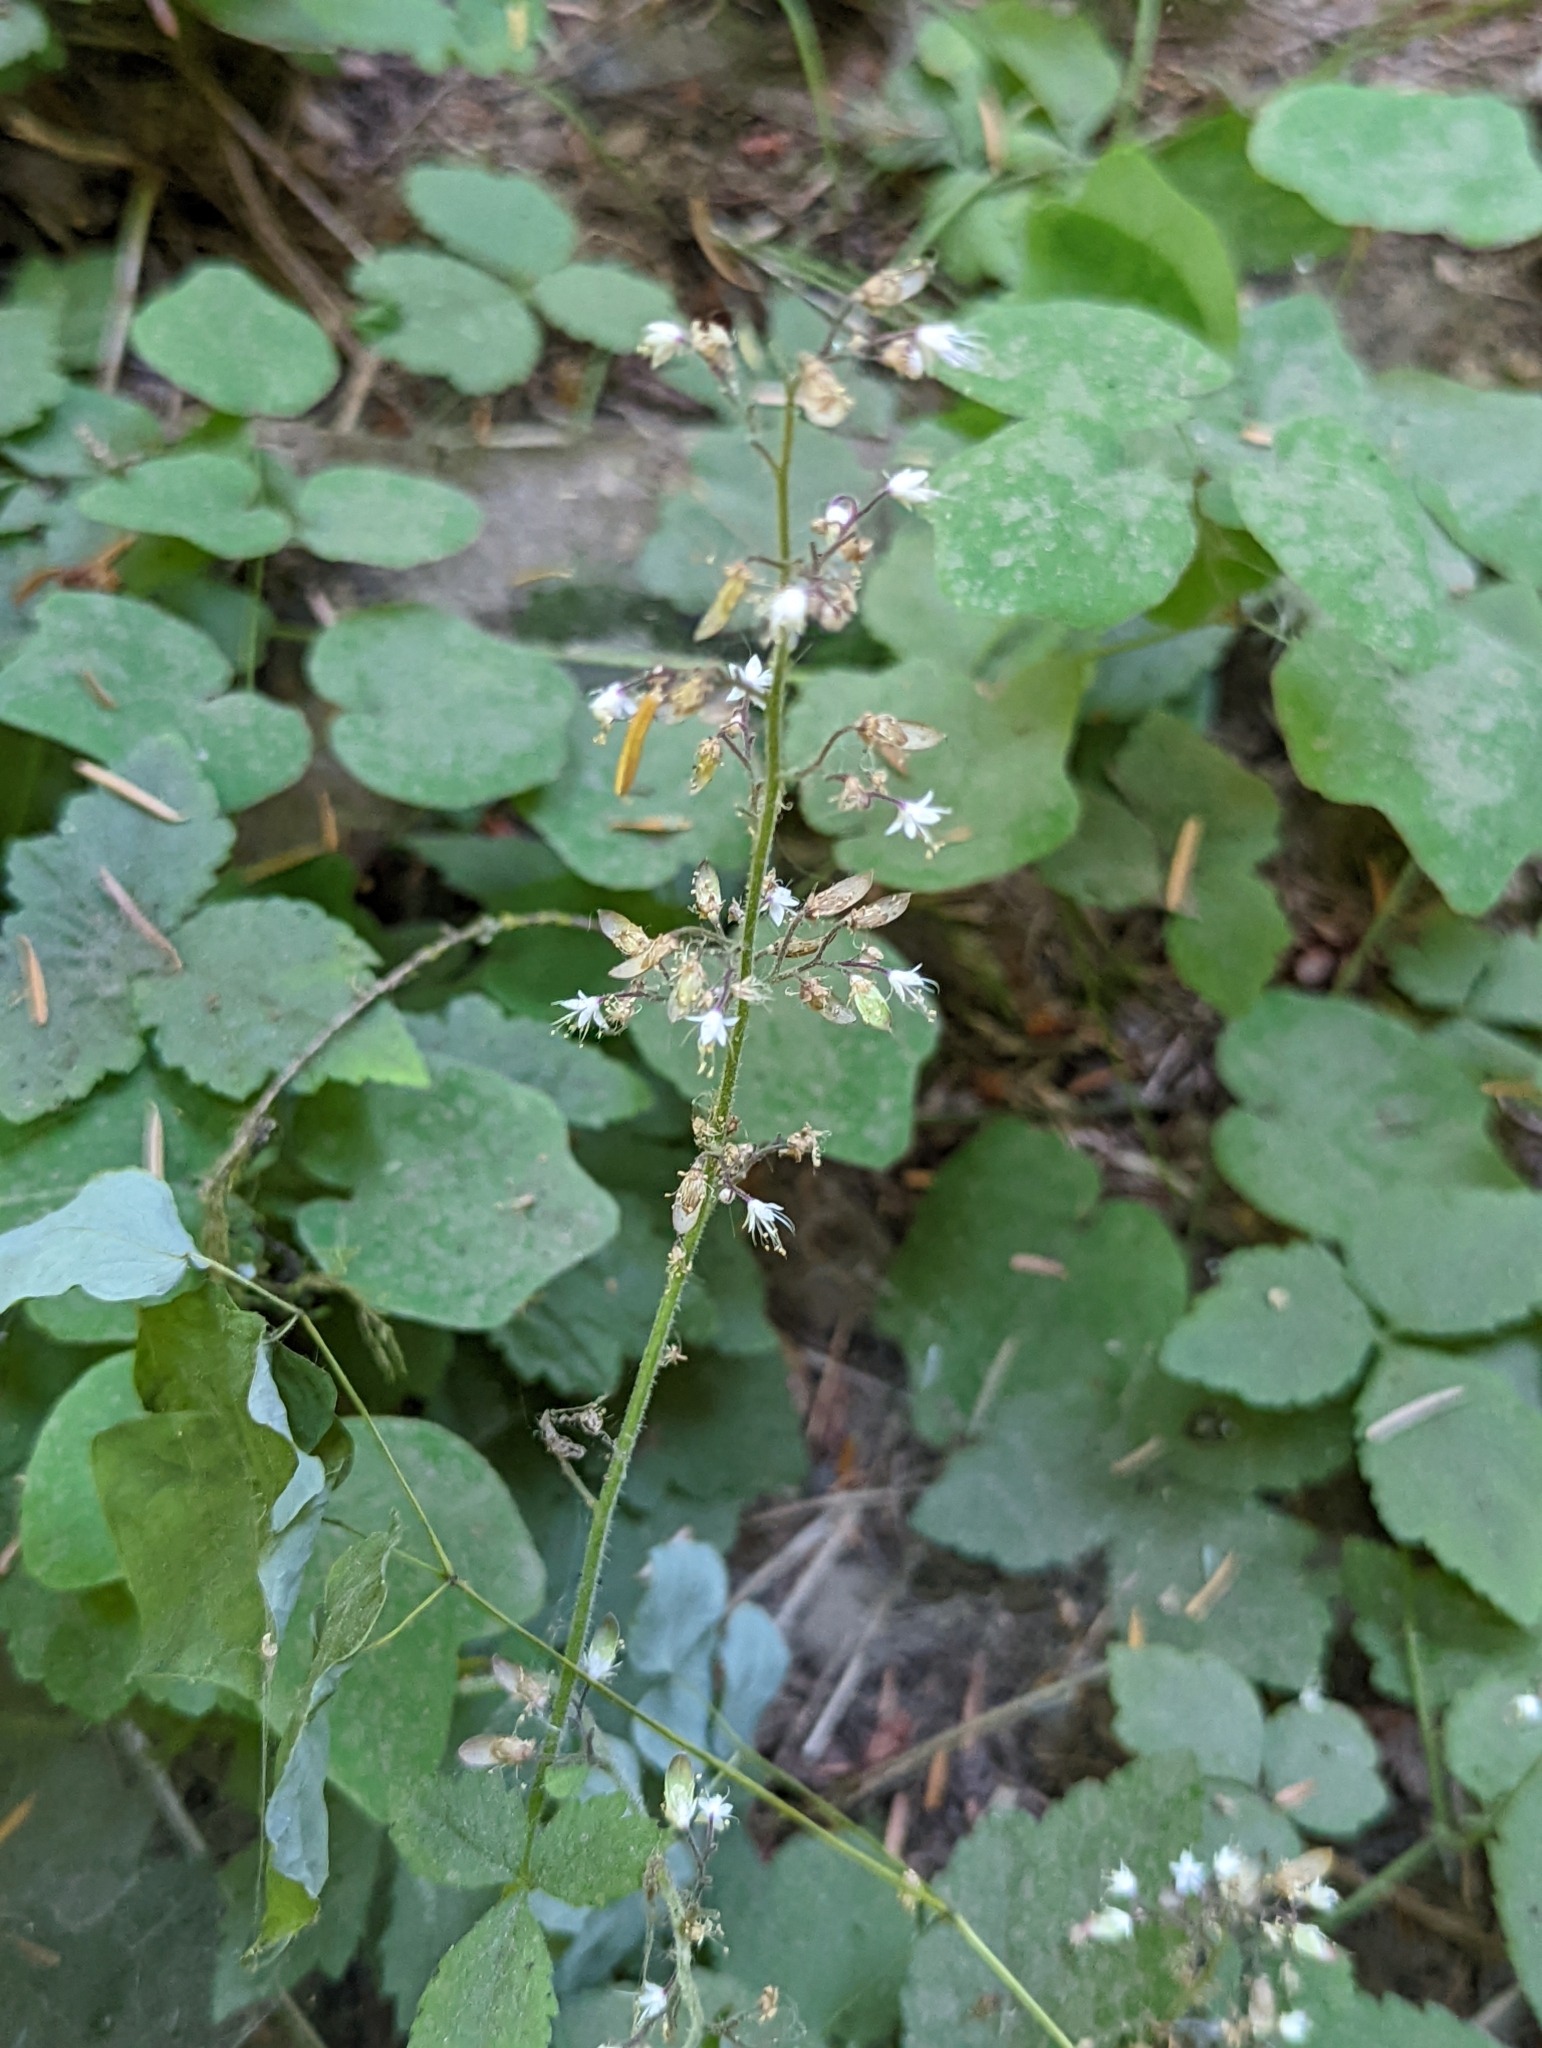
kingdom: Plantae
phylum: Tracheophyta
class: Magnoliopsida
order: Saxifragales
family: Saxifragaceae
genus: Tiarella
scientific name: Tiarella trifoliata
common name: Sugar-scoop
